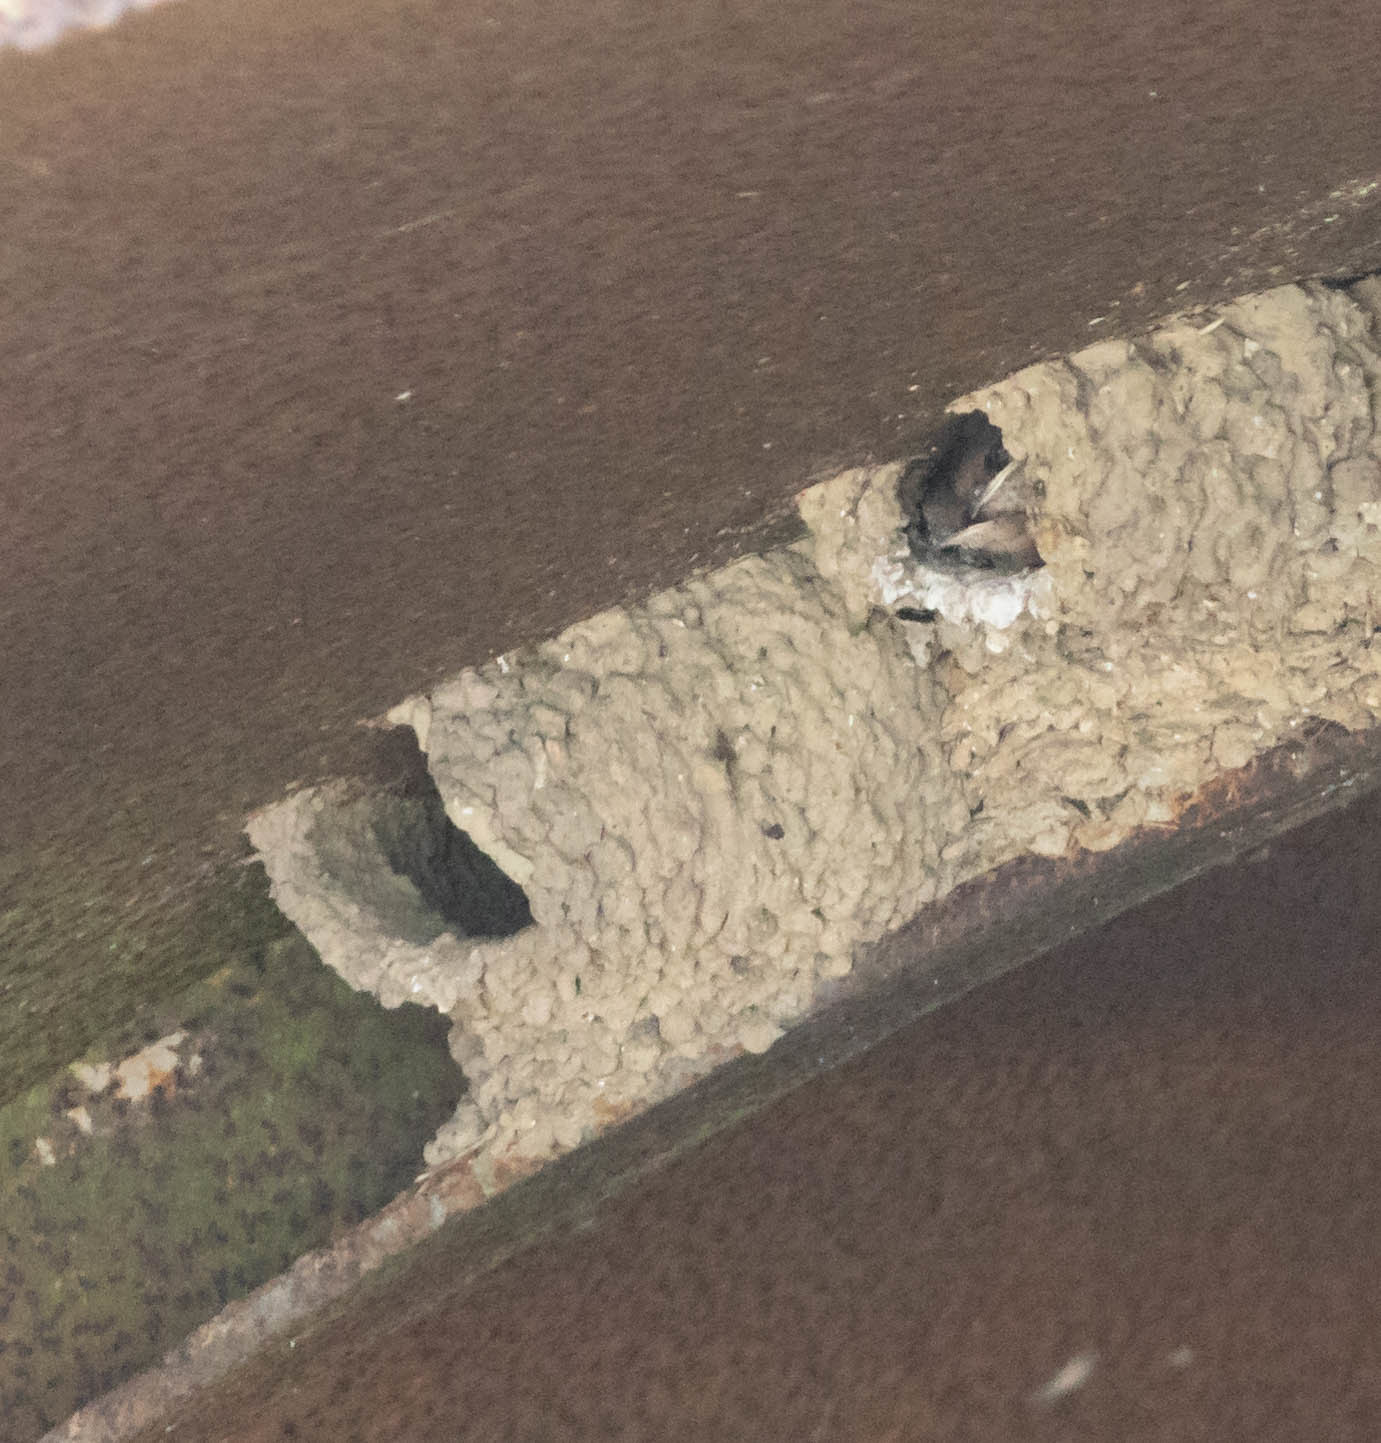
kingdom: Animalia
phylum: Chordata
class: Aves
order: Passeriformes
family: Hirundinidae
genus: Petrochelidon
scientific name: Petrochelidon fulva
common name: Cave swallow
